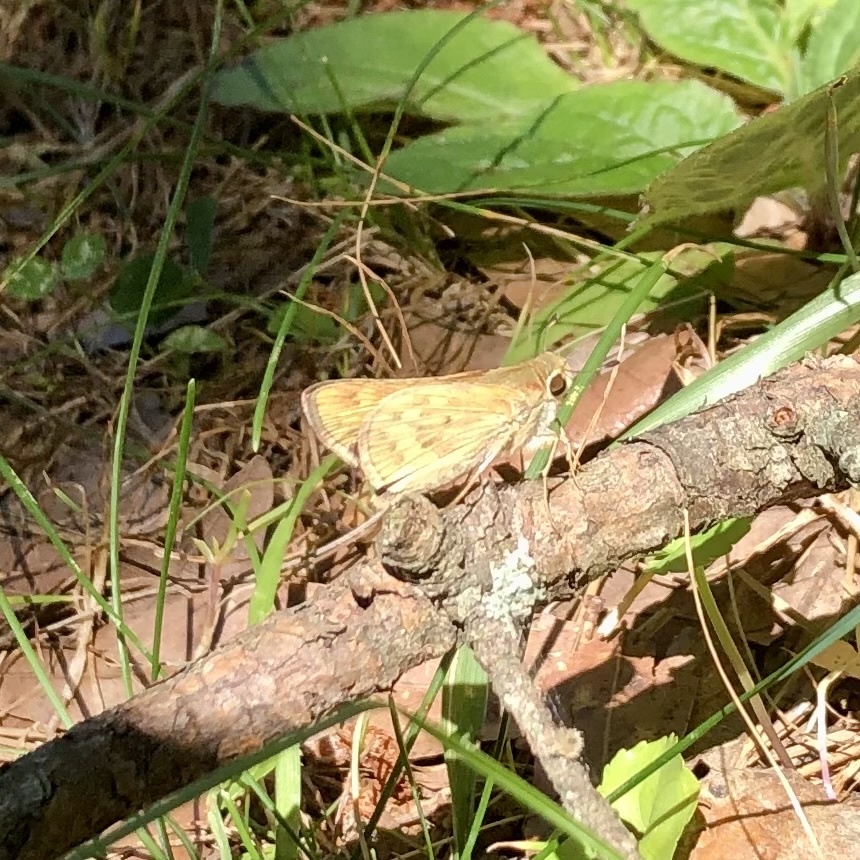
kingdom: Animalia
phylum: Arthropoda
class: Insecta
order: Lepidoptera
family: Hesperiidae
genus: Hylephila
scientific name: Hylephila phyleus
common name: Fiery skipper
